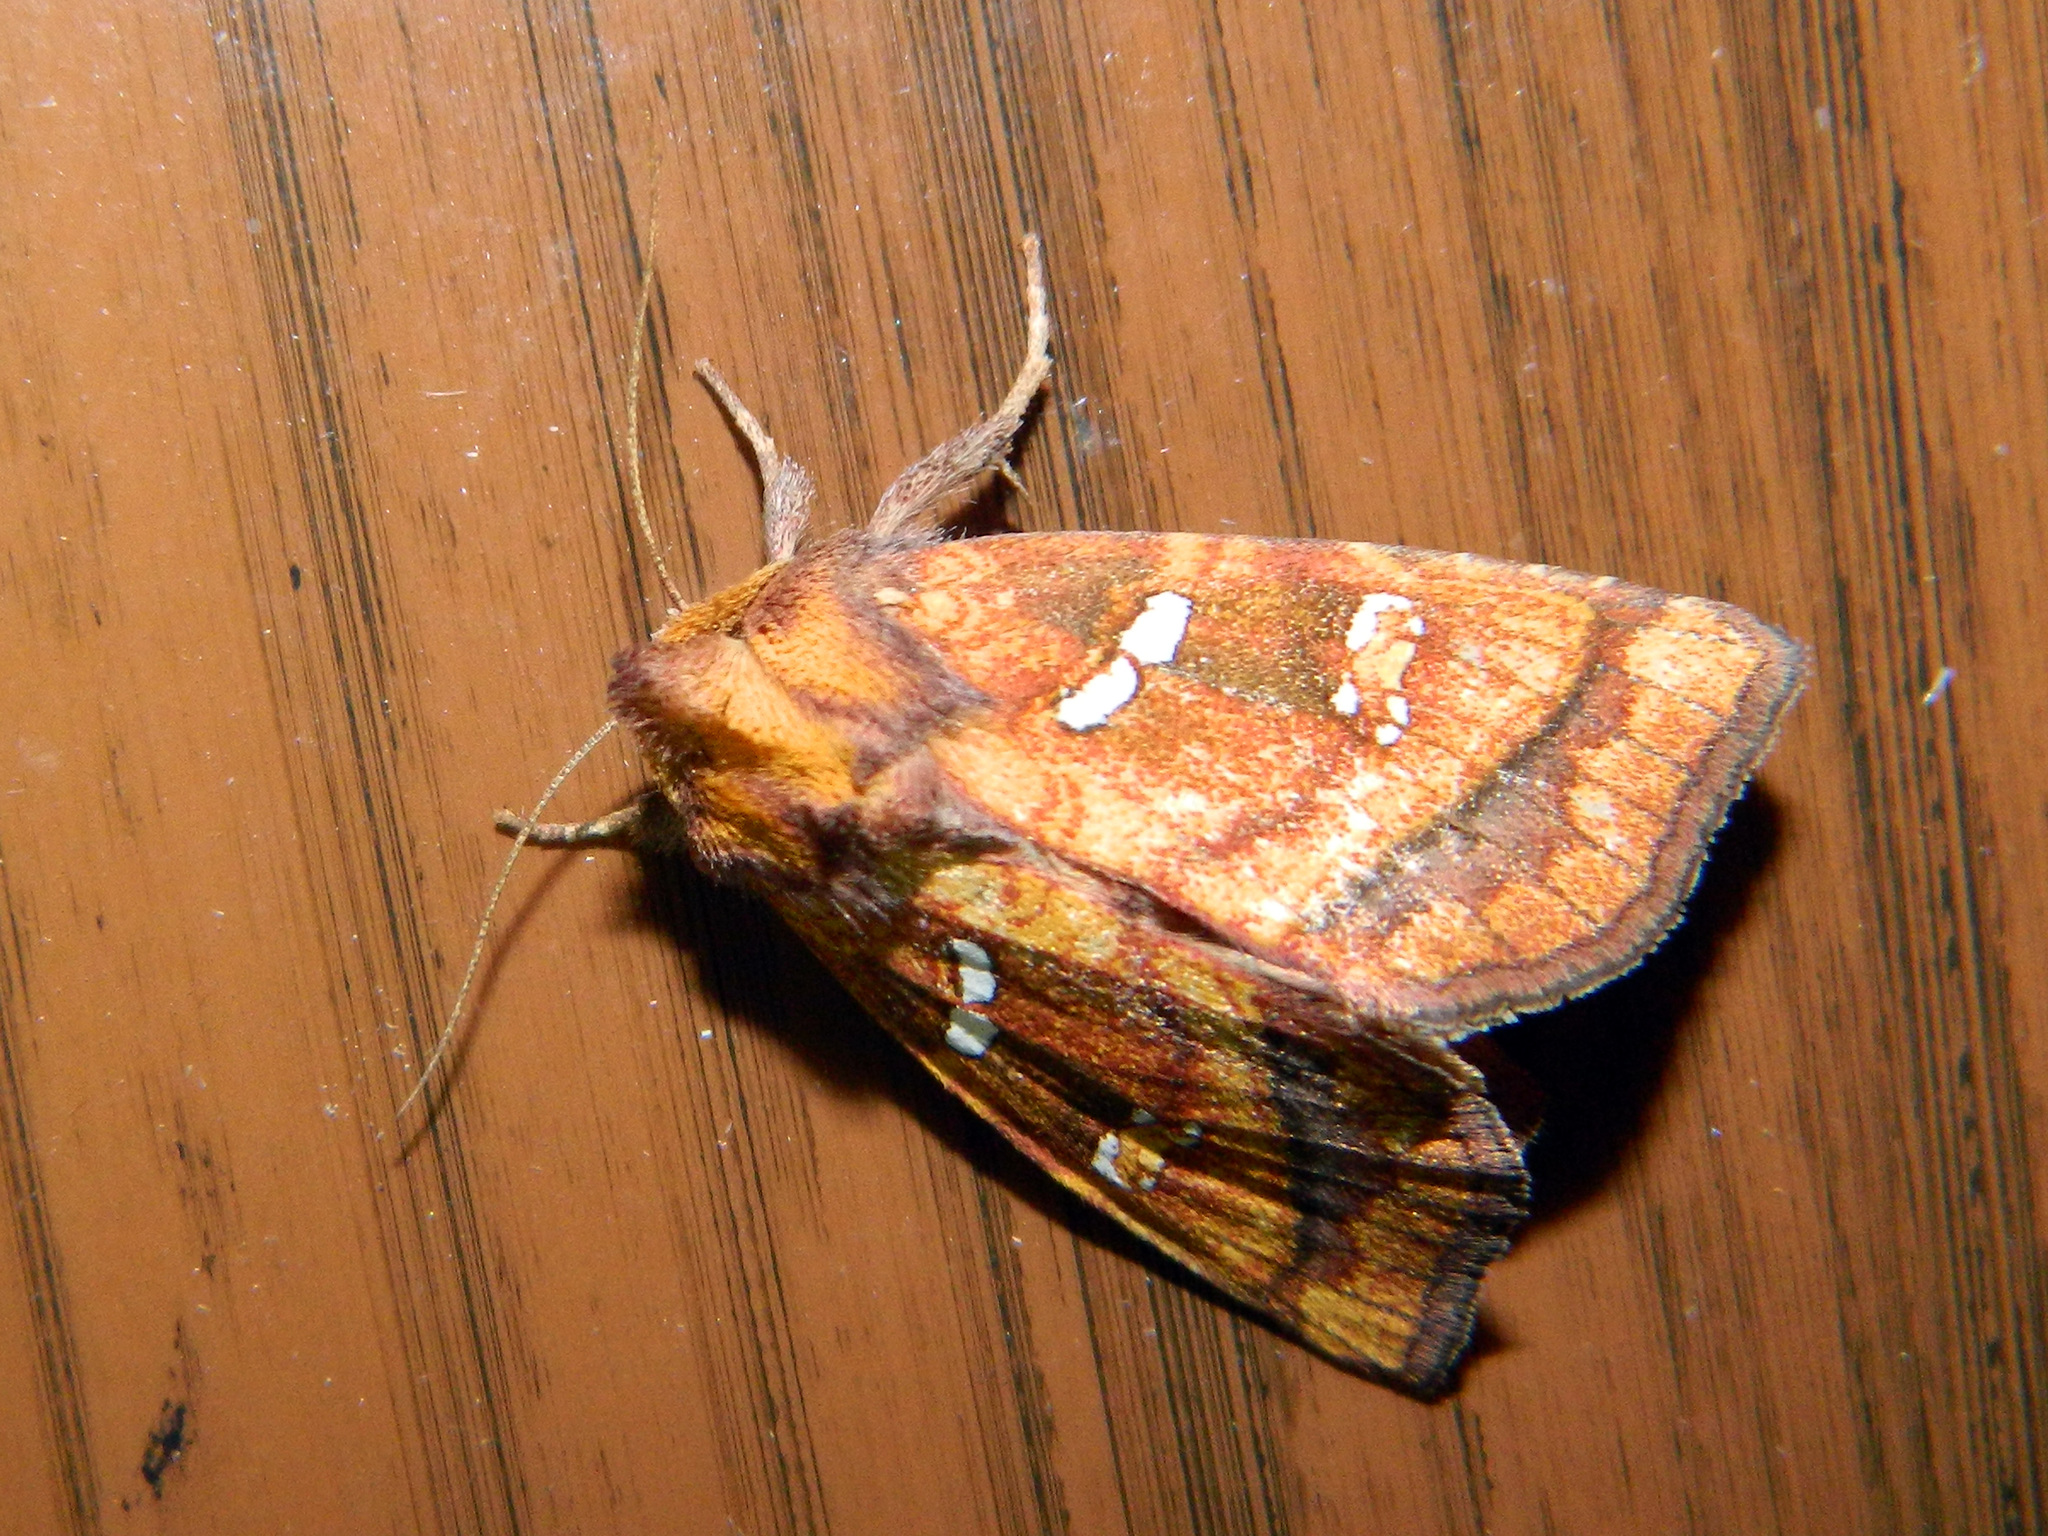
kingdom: Animalia
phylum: Arthropoda
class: Insecta
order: Lepidoptera
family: Noctuidae
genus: Papaipema
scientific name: Papaipema pterisii
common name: Bracken borer moth
